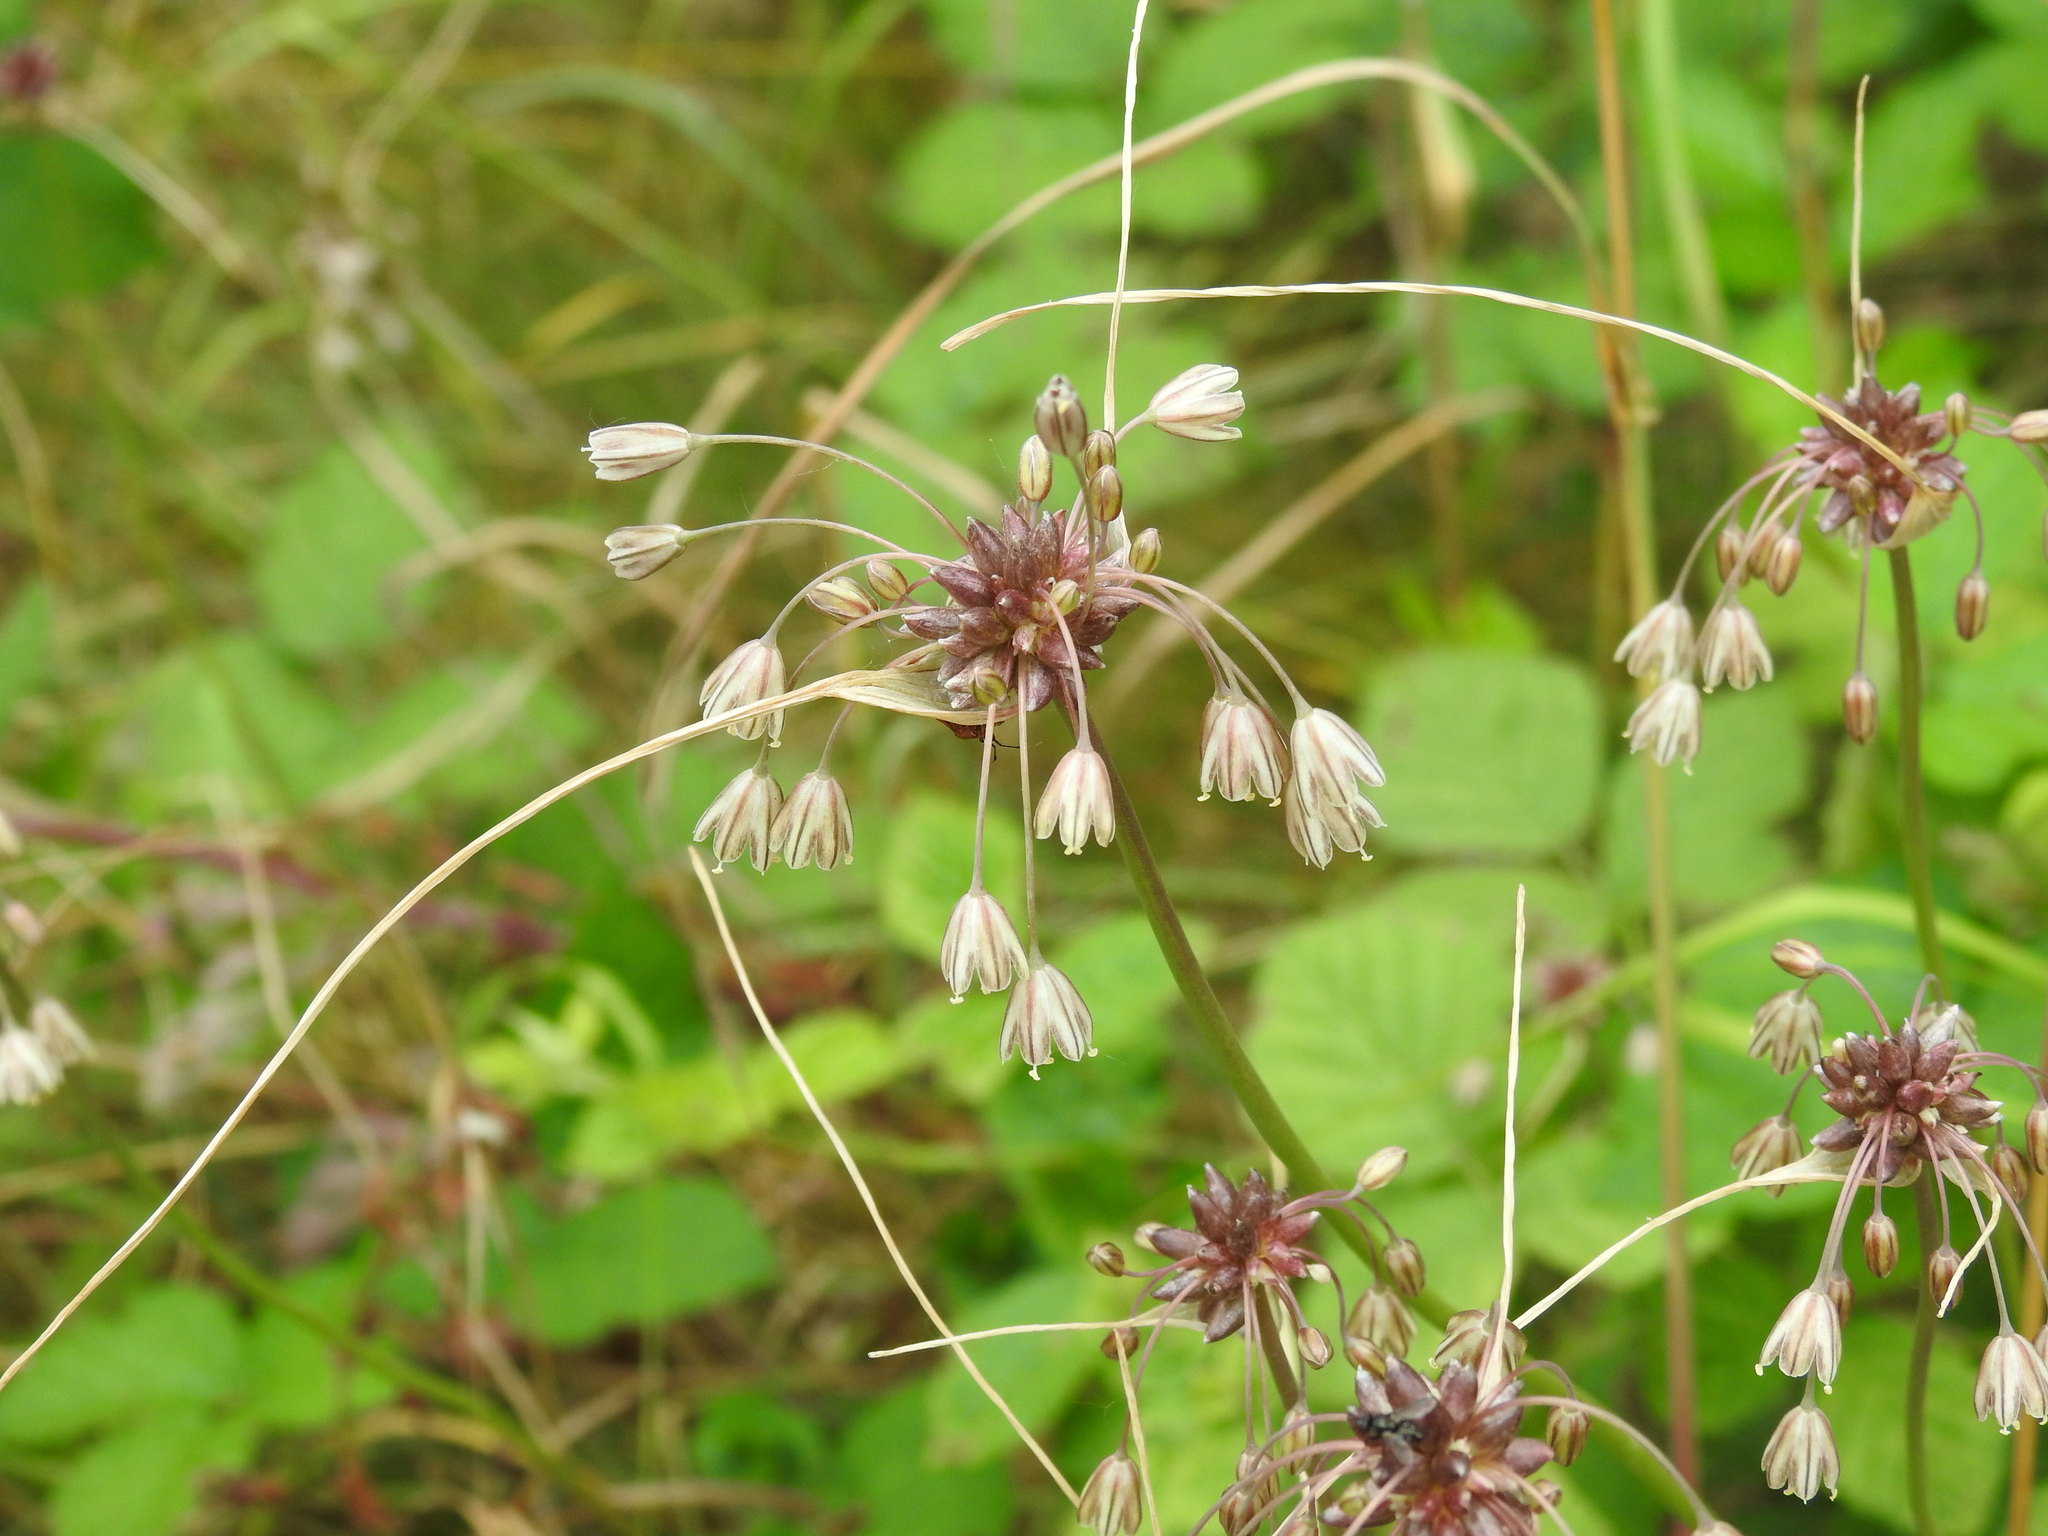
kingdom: Plantae
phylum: Tracheophyta
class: Liliopsida
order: Asparagales
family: Amaryllidaceae
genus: Allium
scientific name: Allium oleraceum
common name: Field garlic
